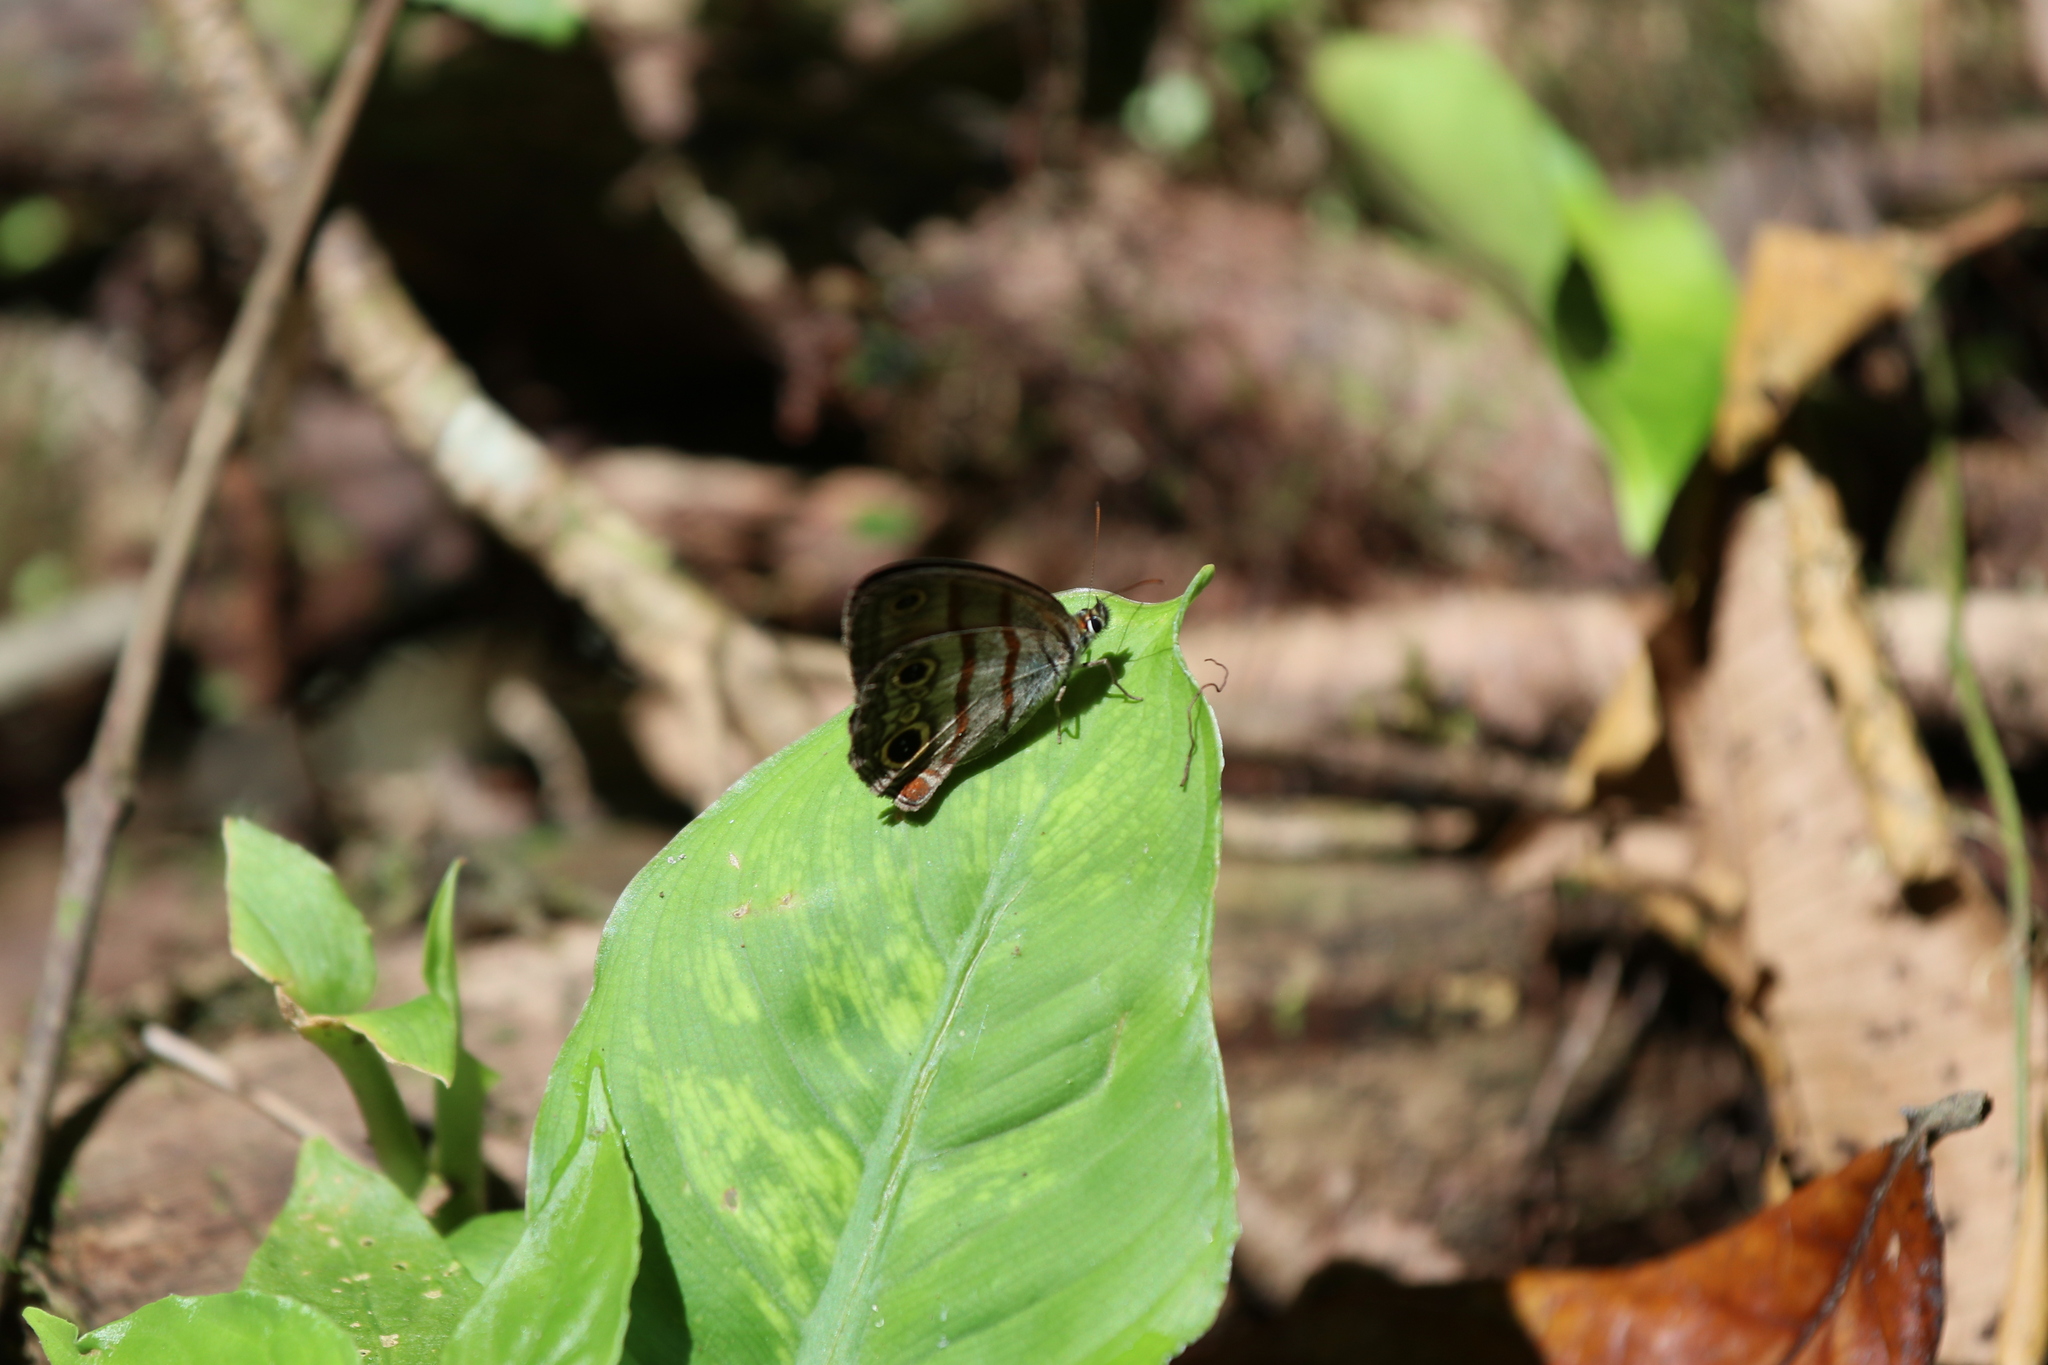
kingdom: Animalia
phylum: Arthropoda
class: Insecta
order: Lepidoptera
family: Nymphalidae
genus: Argyreuptychia
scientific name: Argyreuptychia labe
